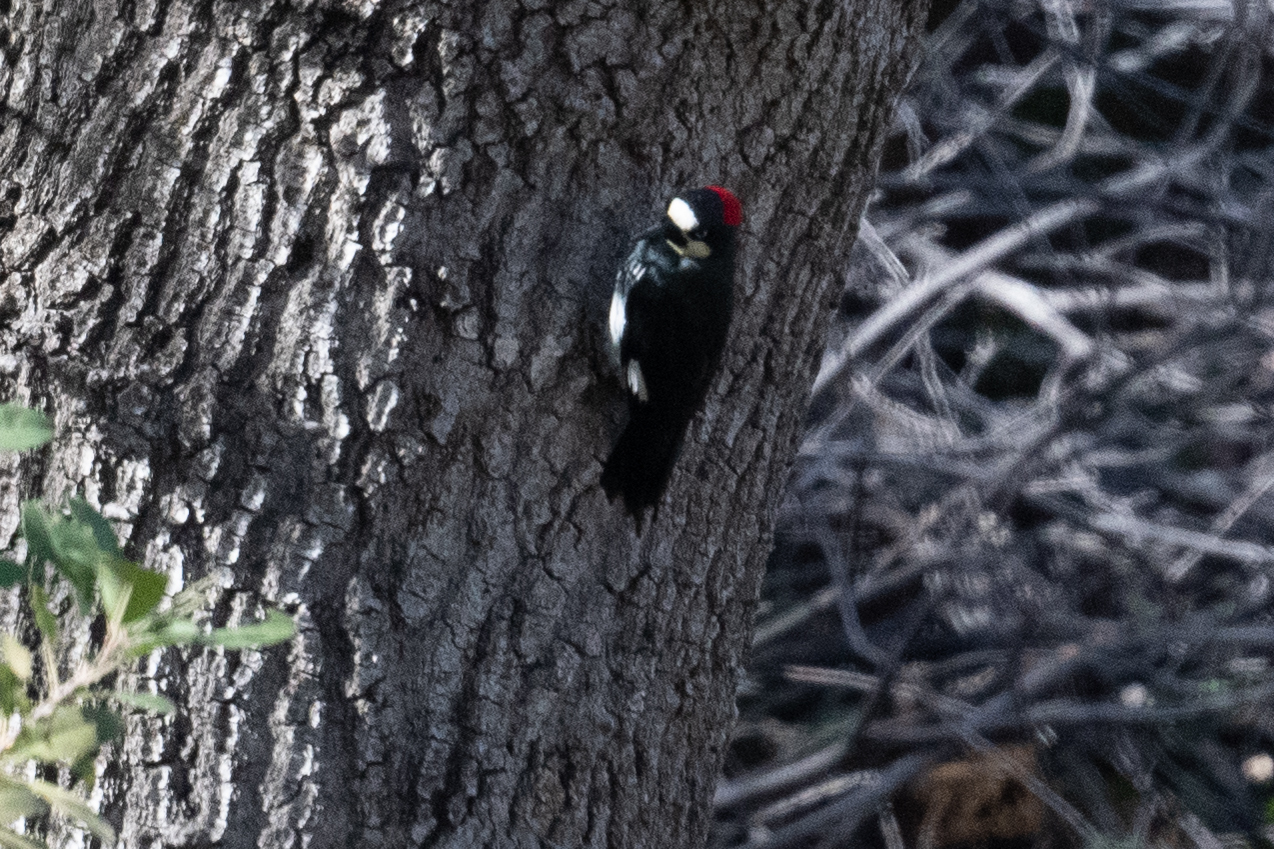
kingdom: Animalia
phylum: Chordata
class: Aves
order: Piciformes
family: Picidae
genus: Melanerpes
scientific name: Melanerpes formicivorus
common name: Acorn woodpecker
